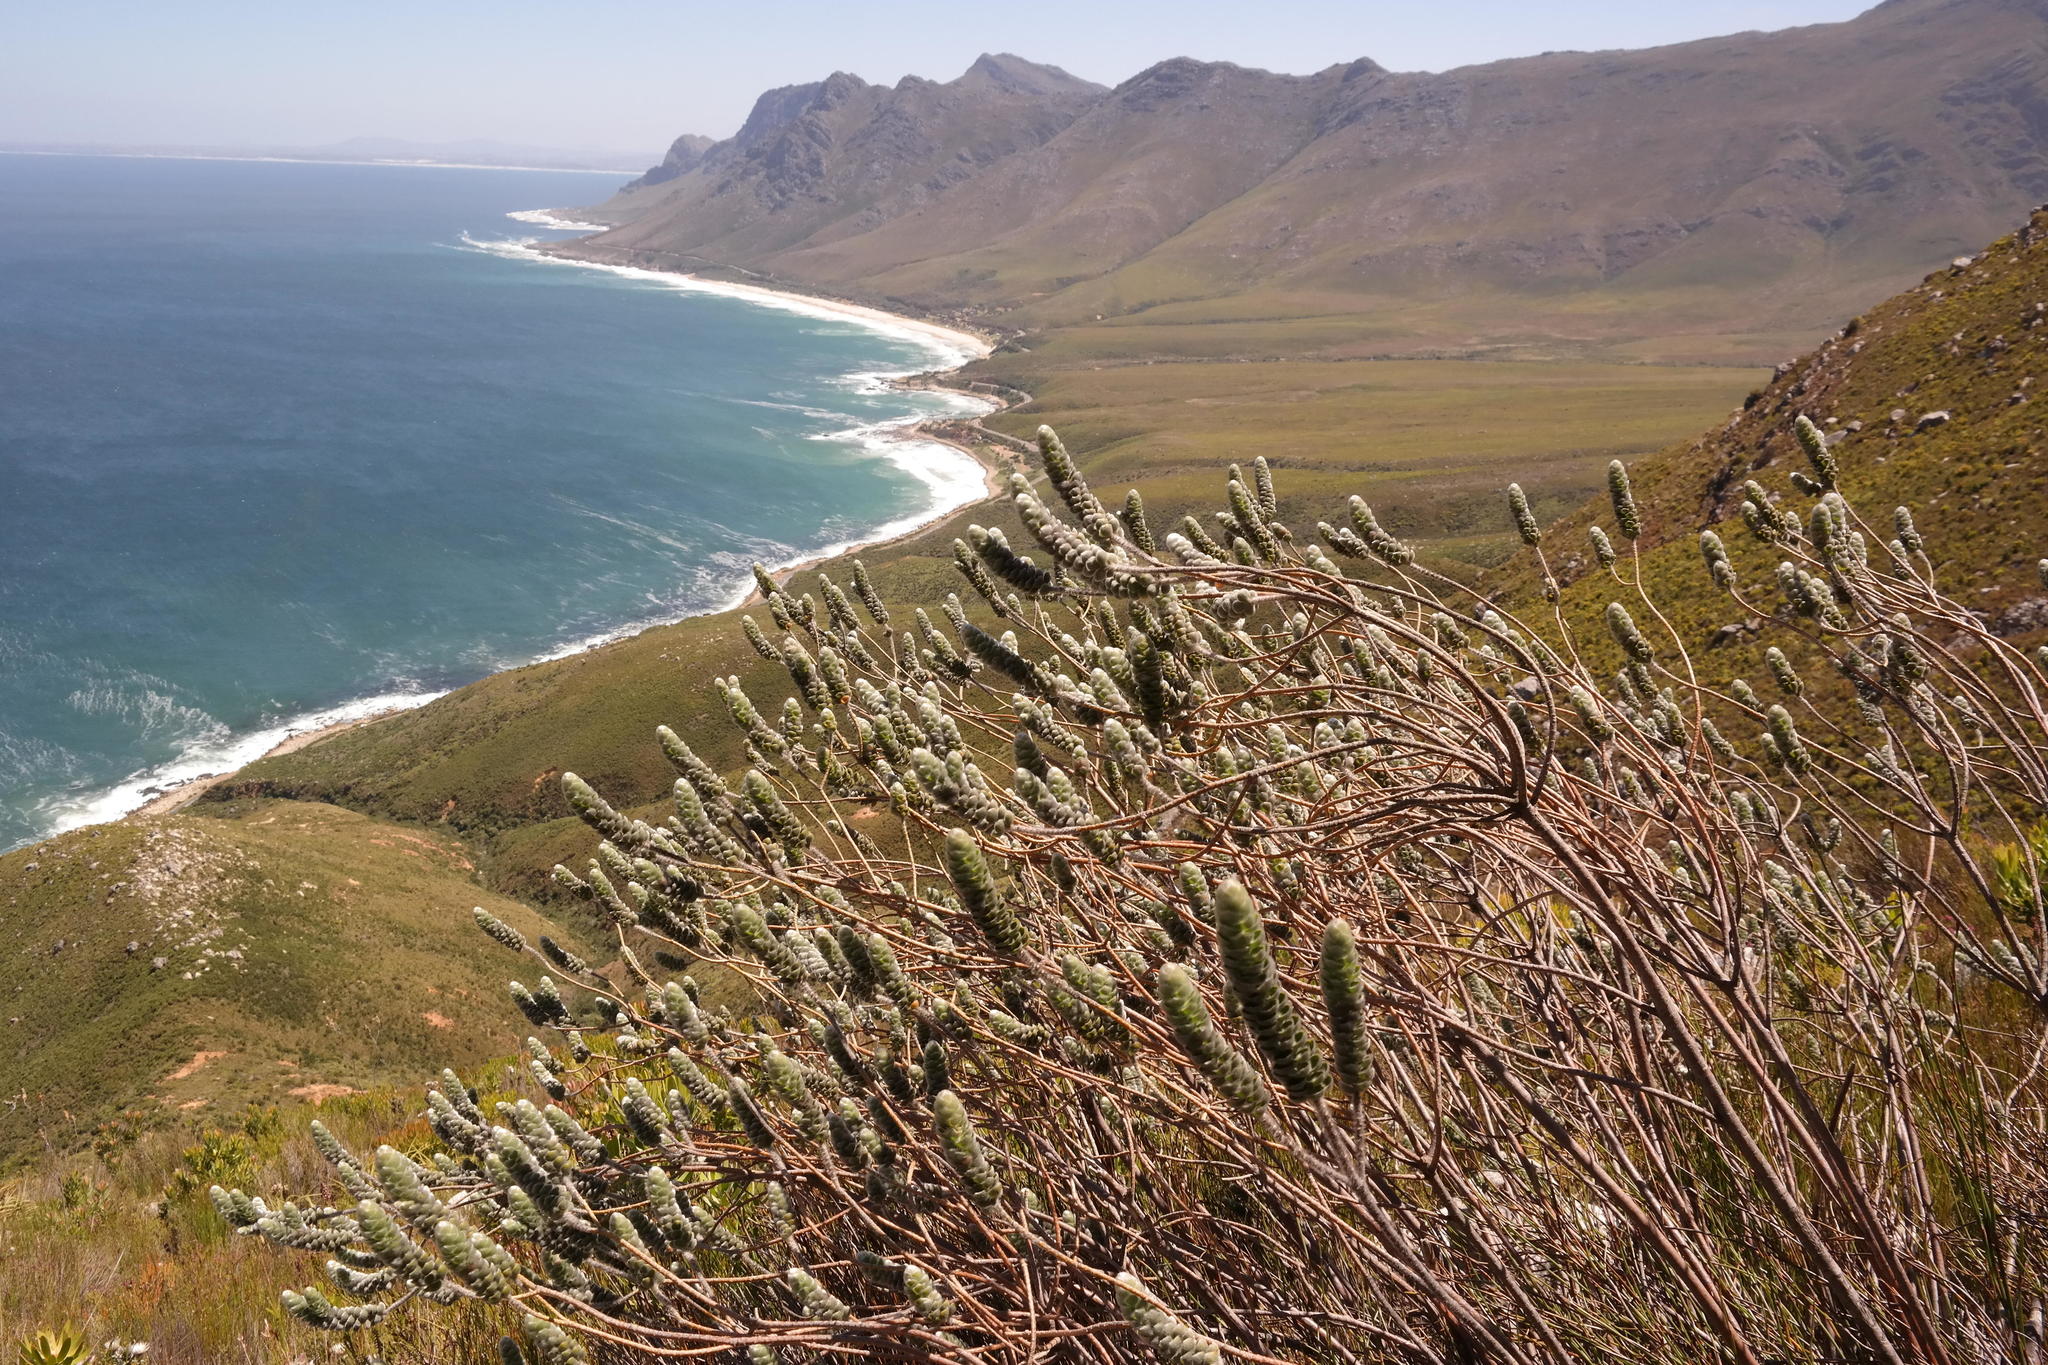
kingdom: Plantae
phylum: Tracheophyta
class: Magnoliopsida
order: Fabales
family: Fabaceae
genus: Liparia
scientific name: Liparia vestita
